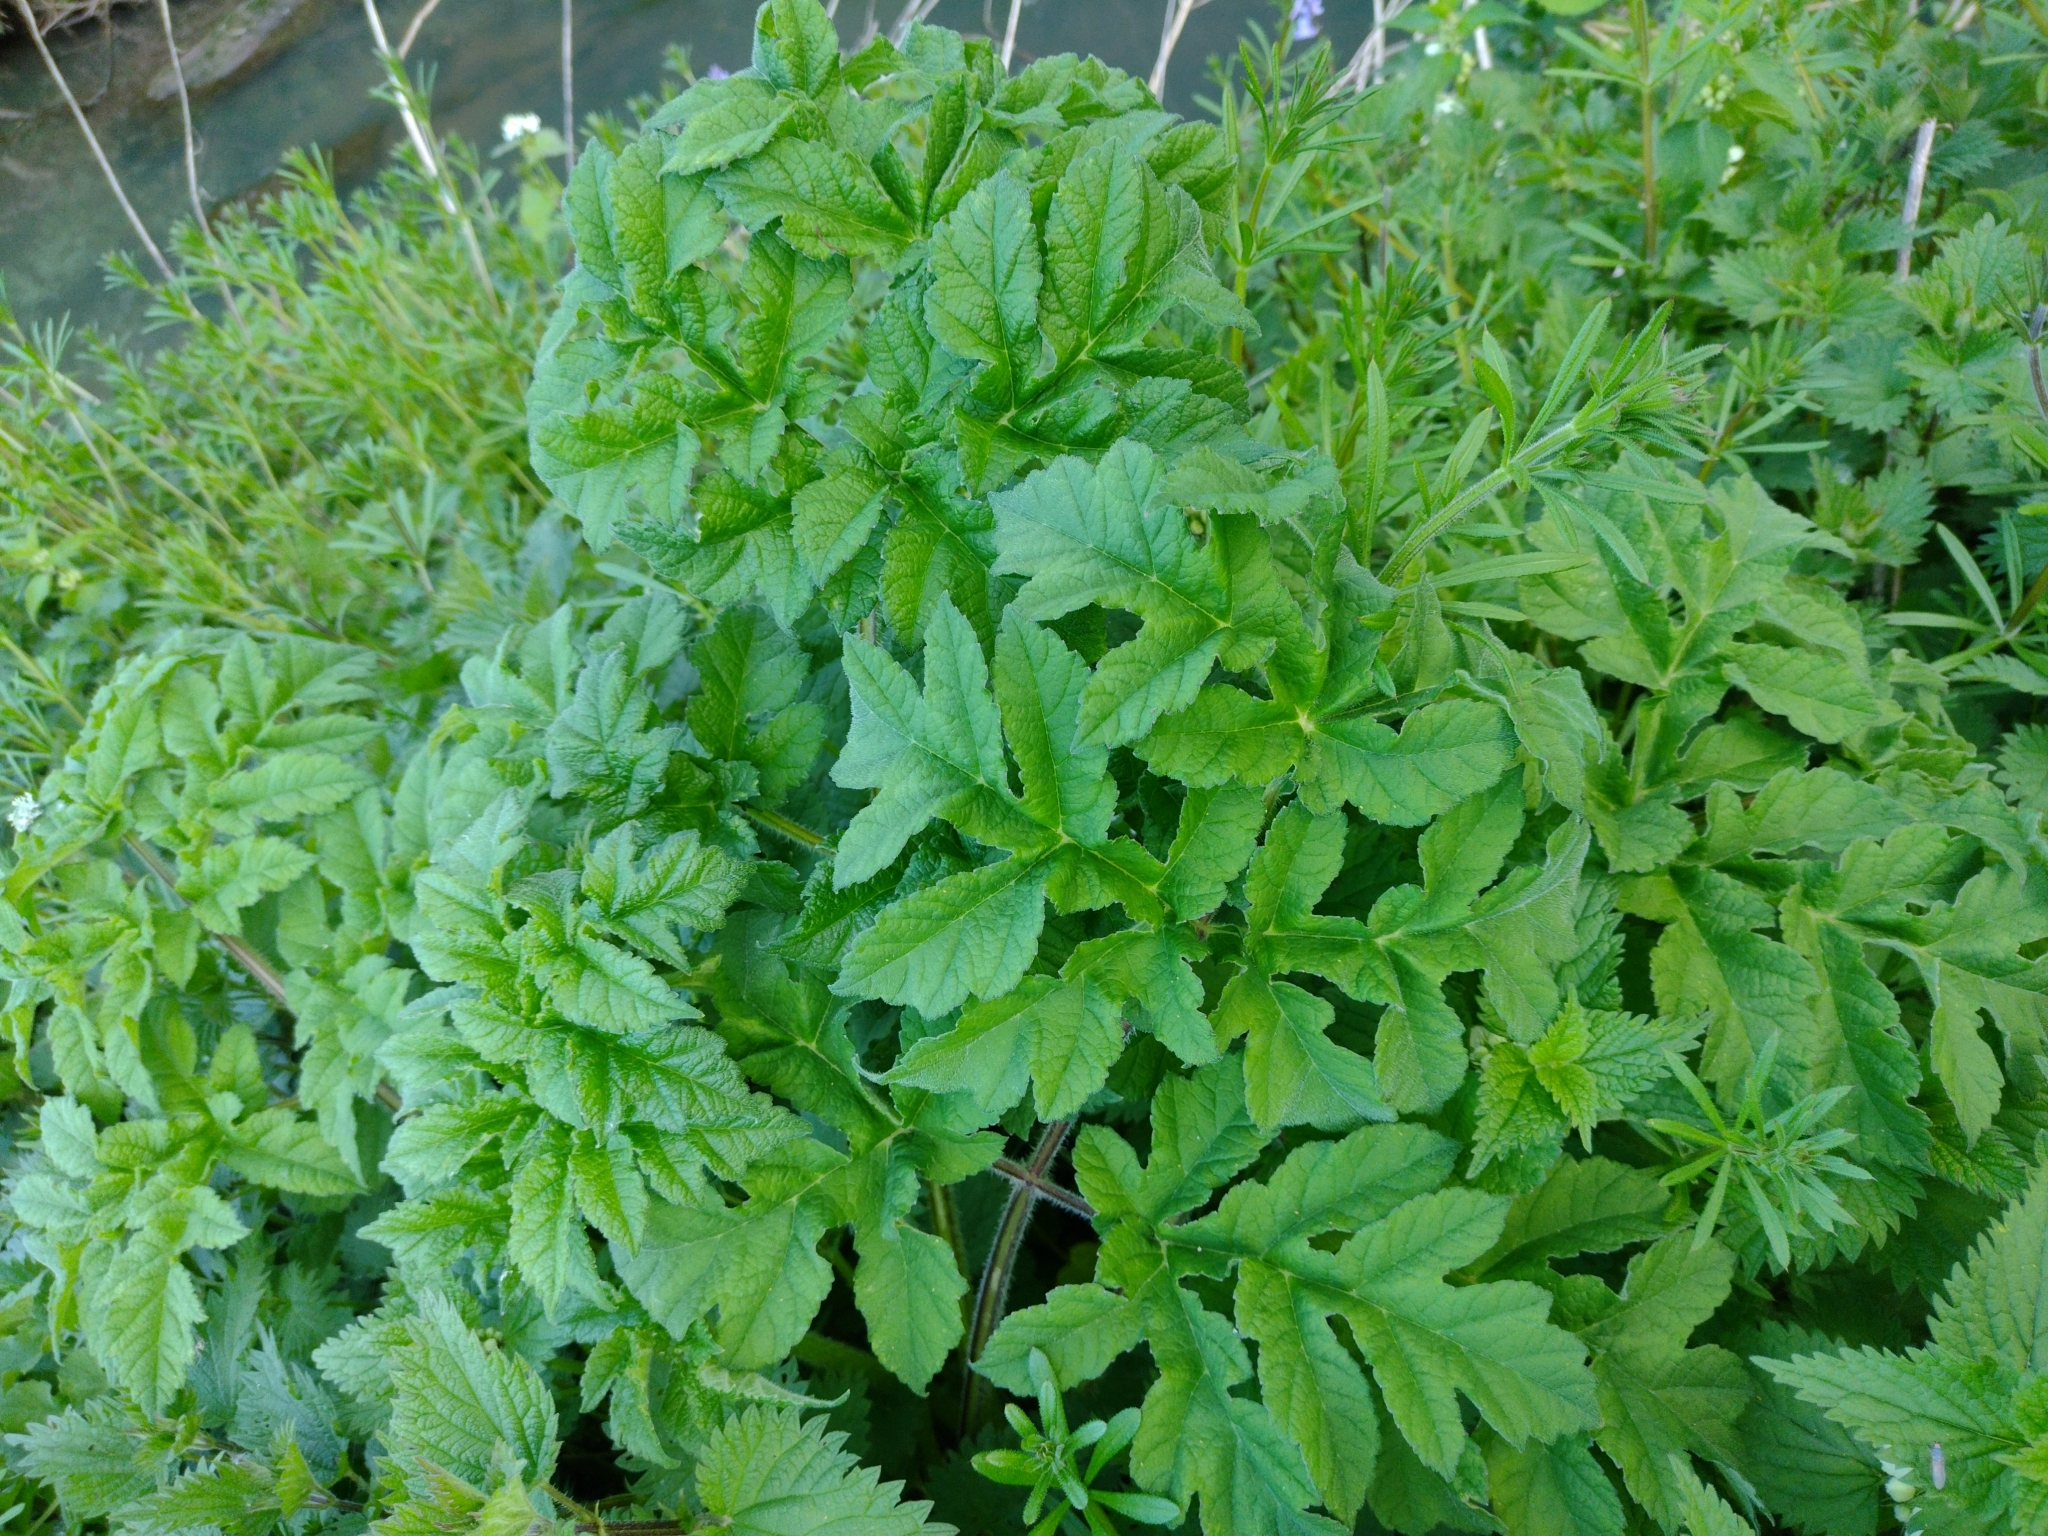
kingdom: Plantae
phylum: Tracheophyta
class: Magnoliopsida
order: Apiales
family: Apiaceae
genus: Heracleum
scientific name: Heracleum sphondylium
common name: Hogweed
